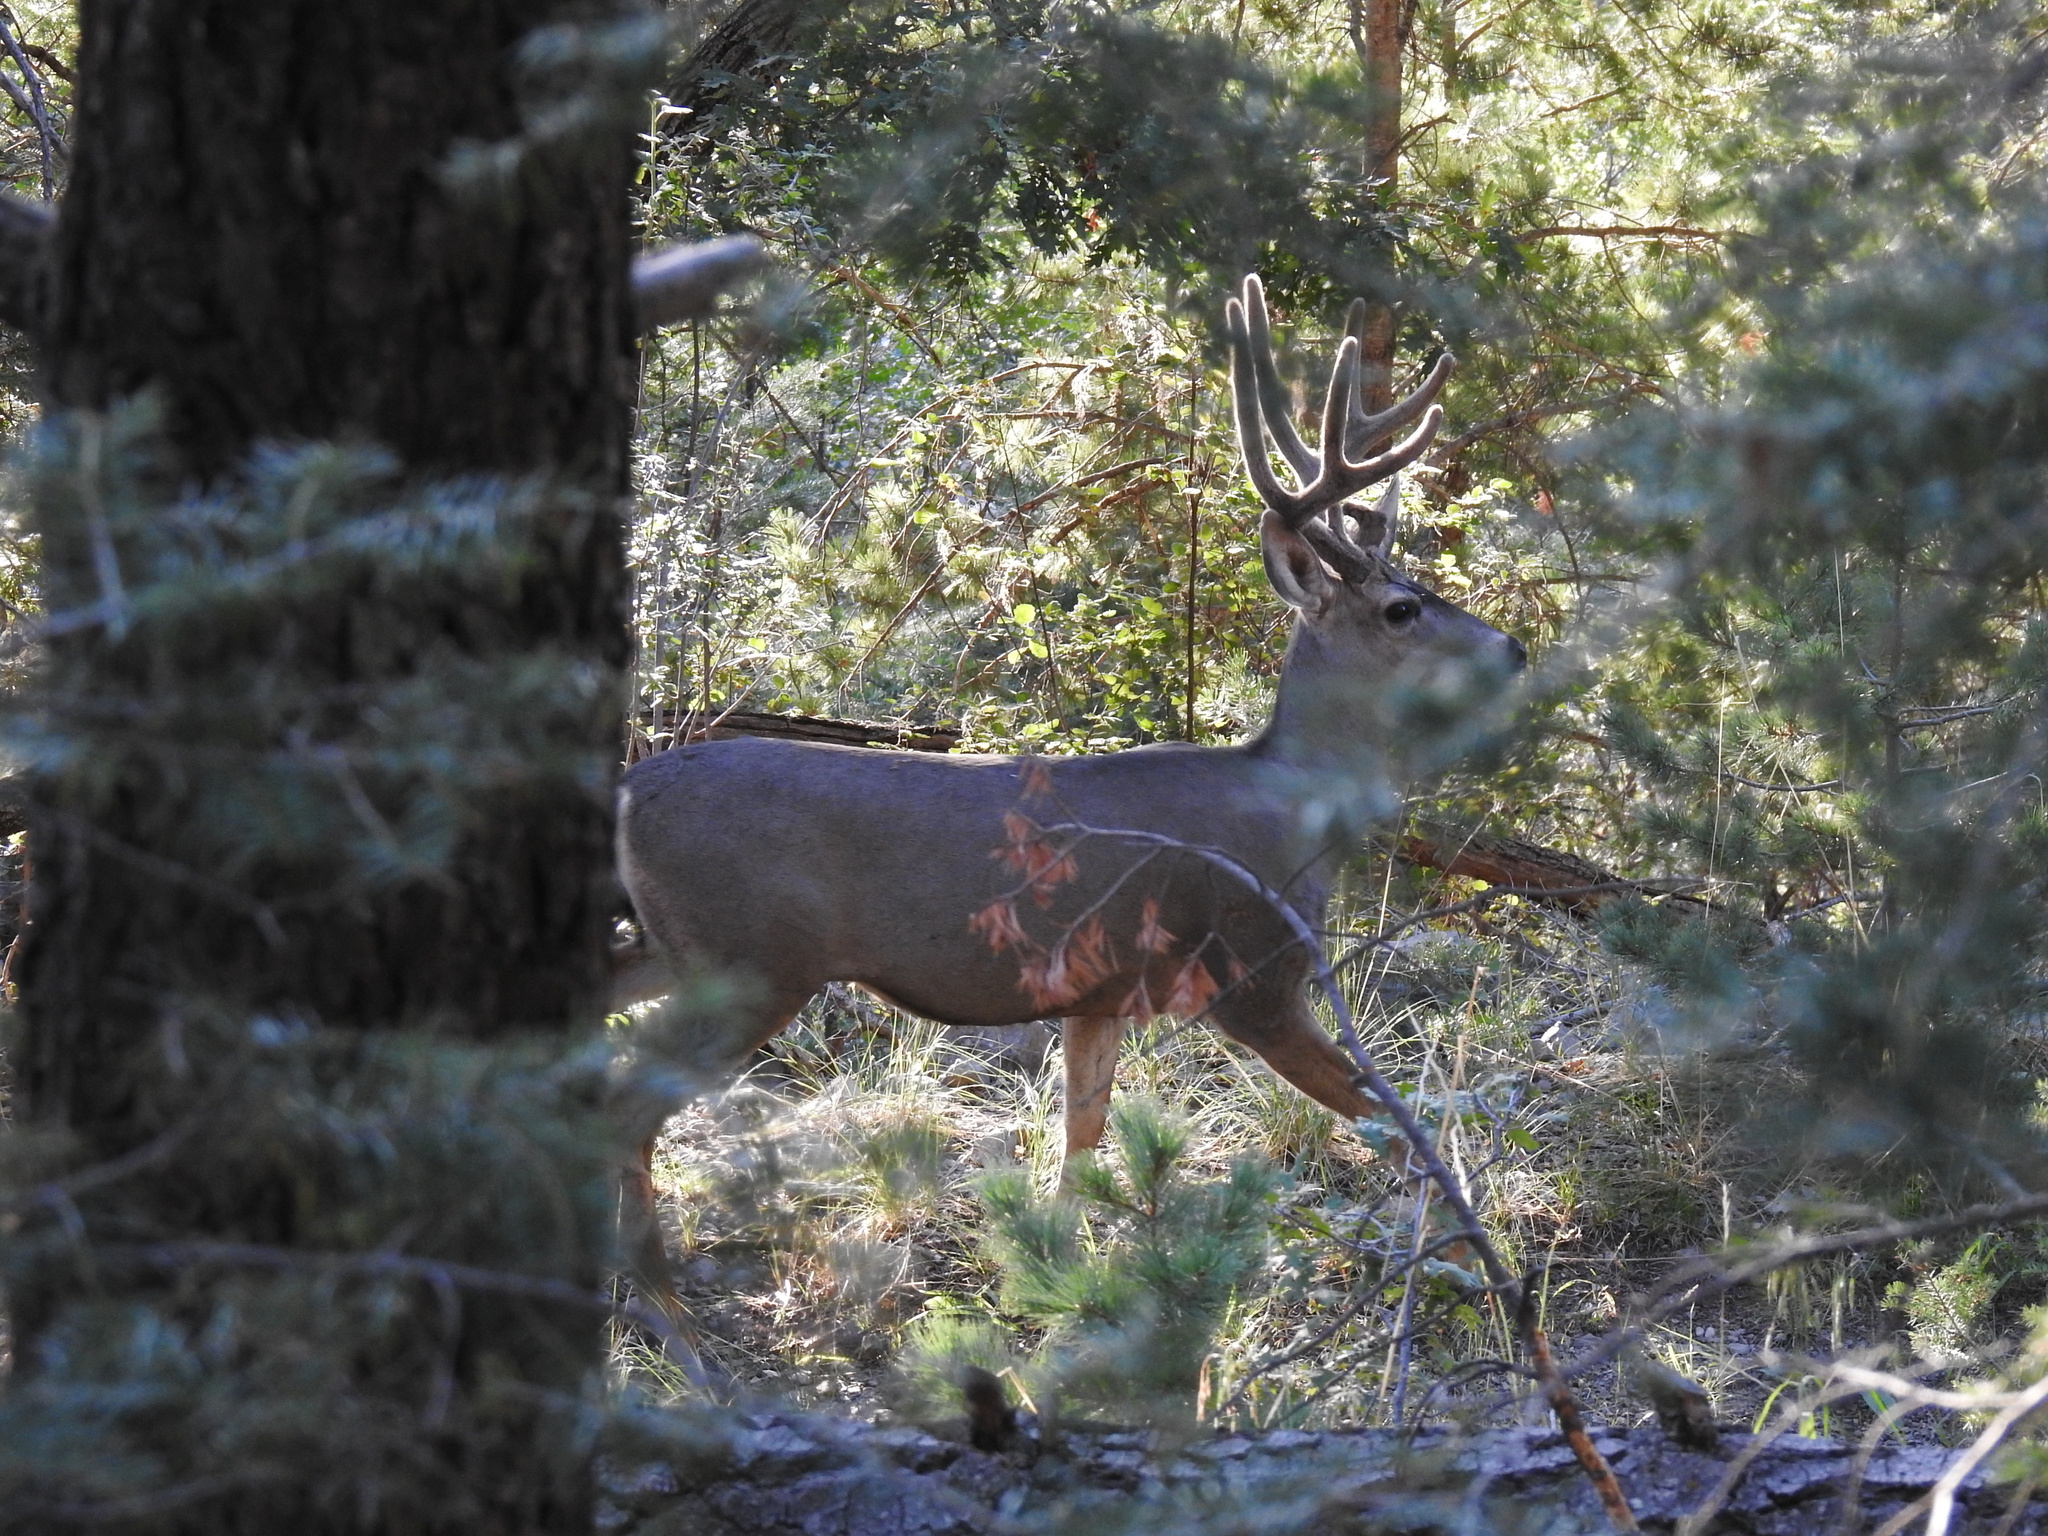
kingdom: Animalia
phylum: Chordata
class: Mammalia
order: Artiodactyla
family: Cervidae
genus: Odocoileus
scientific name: Odocoileus hemionus
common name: Mule deer
